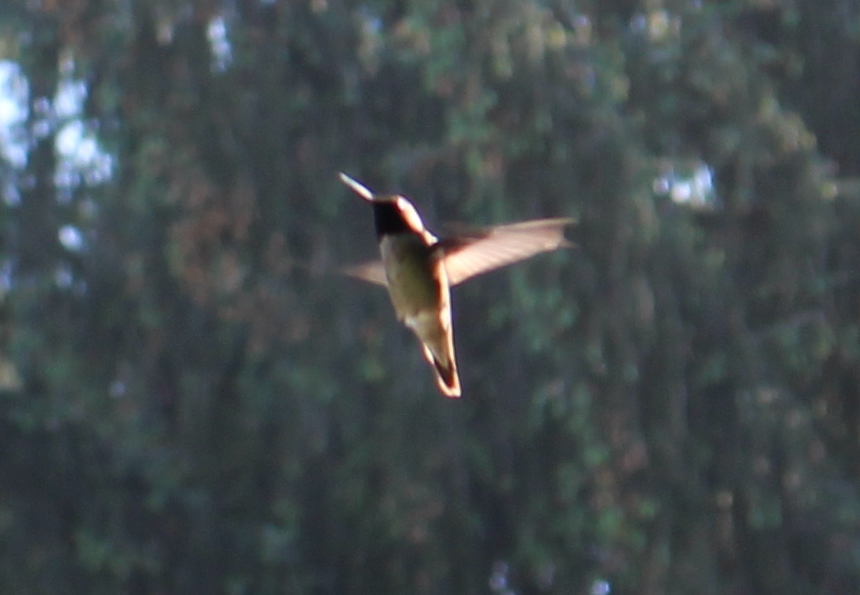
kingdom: Animalia
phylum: Chordata
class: Aves
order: Apodiformes
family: Trochilidae
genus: Calypte
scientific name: Calypte anna
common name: Anna's hummingbird
